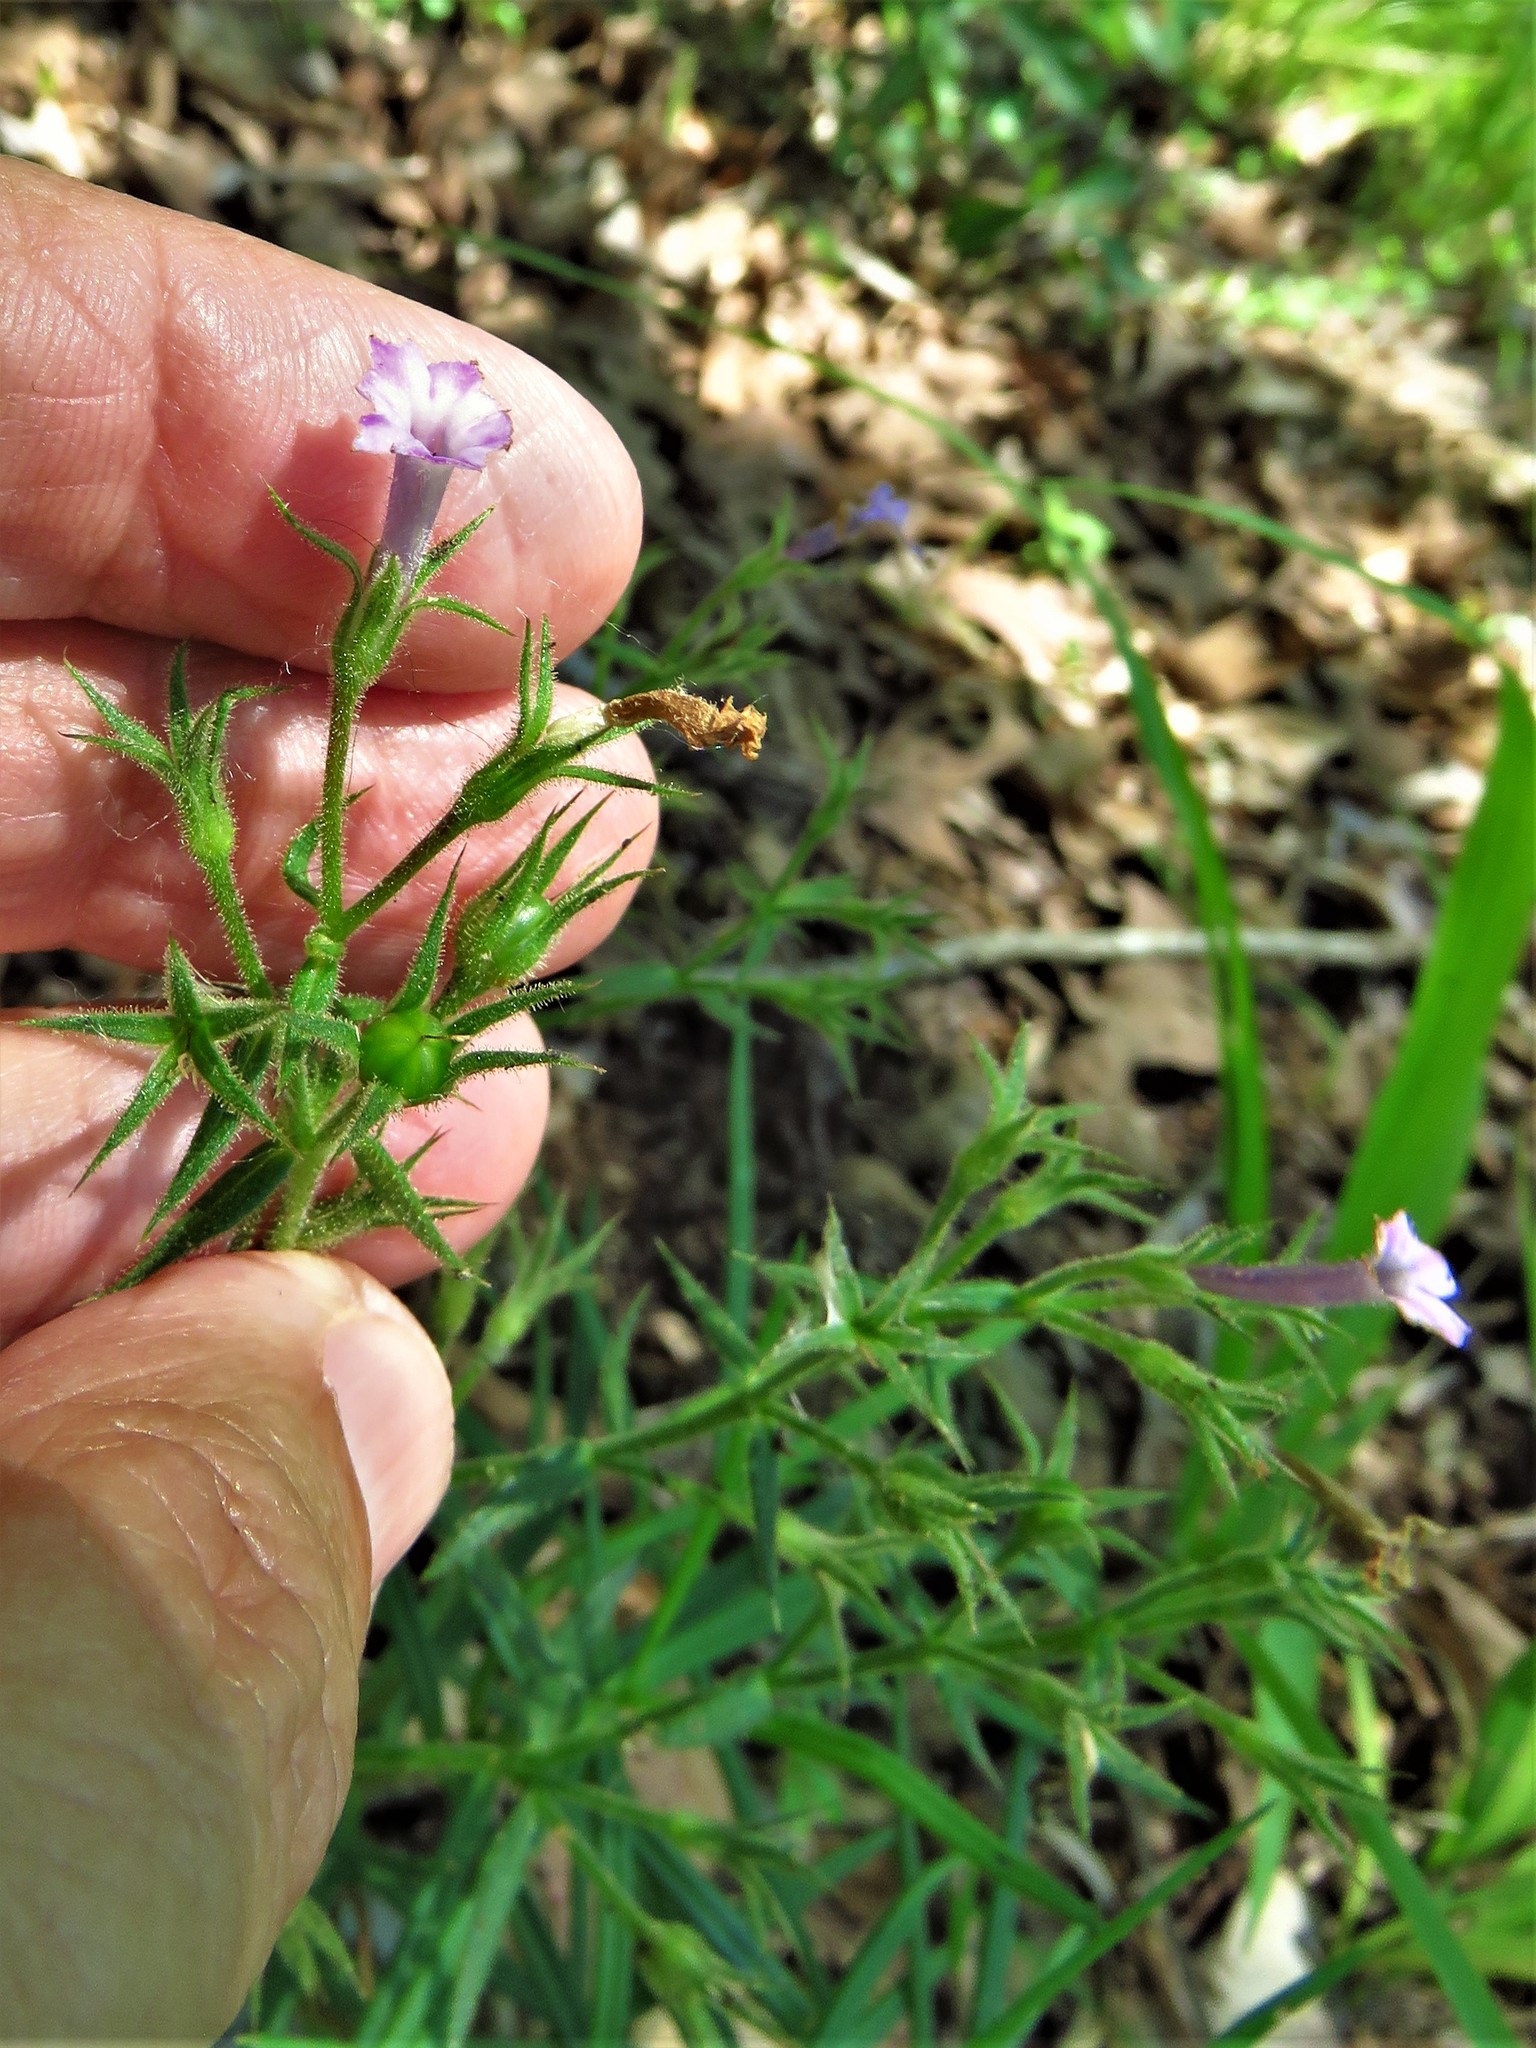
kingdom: Plantae
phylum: Tracheophyta
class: Magnoliopsida
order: Ericales
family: Polemoniaceae
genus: Phlox
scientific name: Phlox pilosa
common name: Prairie phlox
